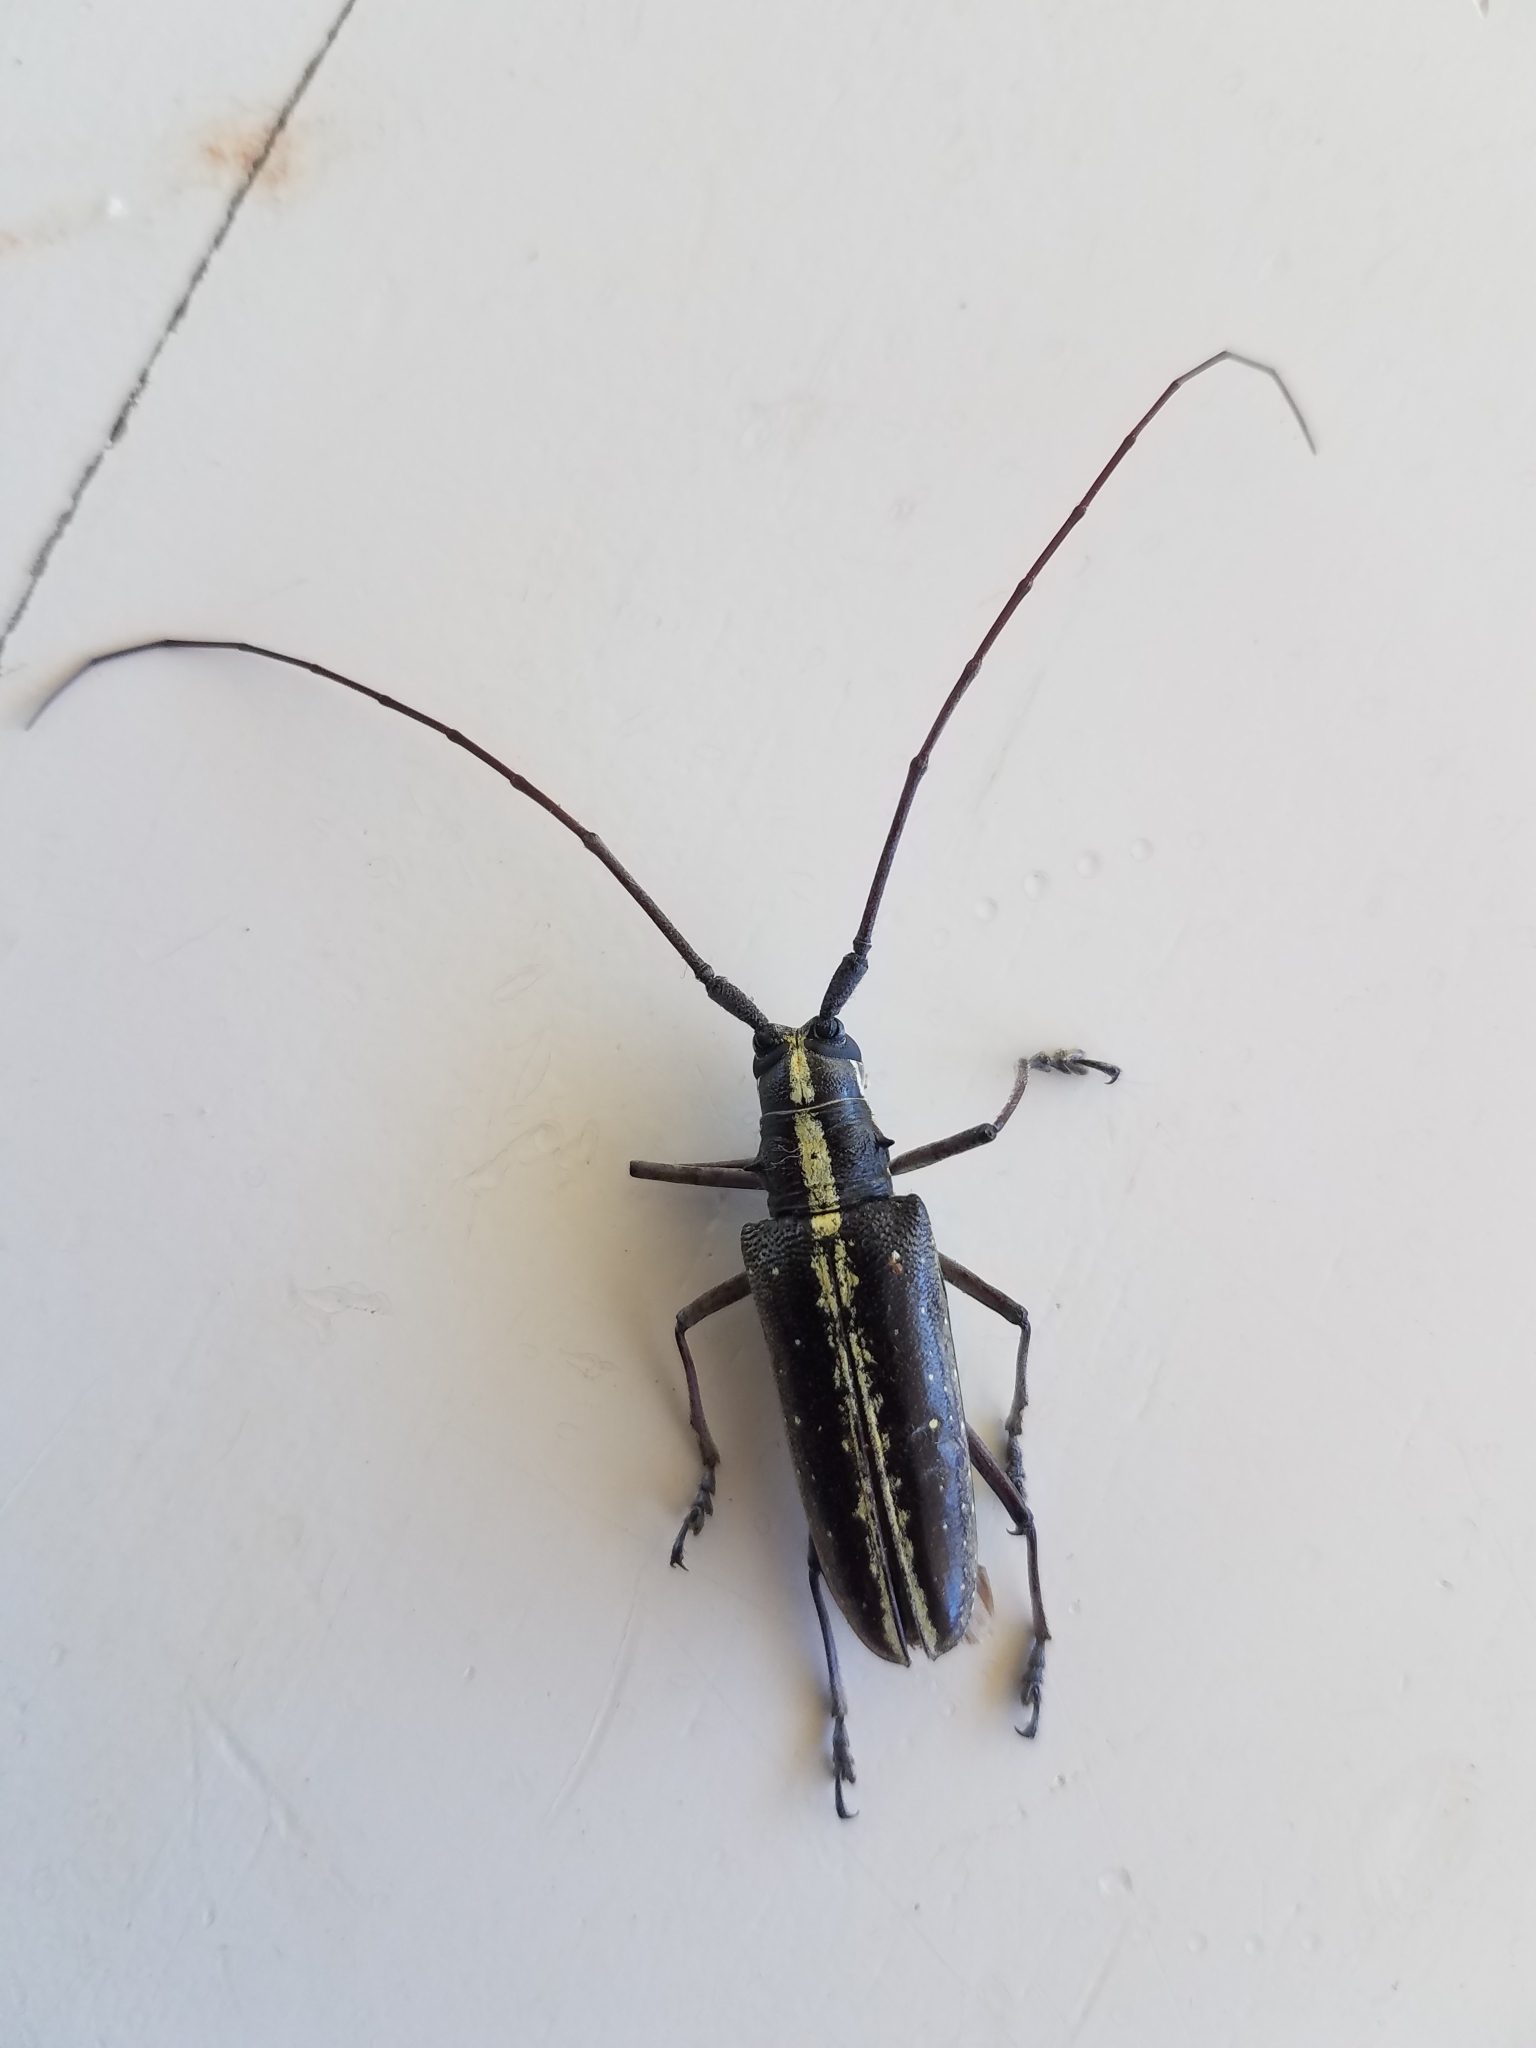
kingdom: Animalia
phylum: Arthropoda
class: Insecta
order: Coleoptera
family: Cerambycidae
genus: Taeniotes
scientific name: Taeniotes scalatus
